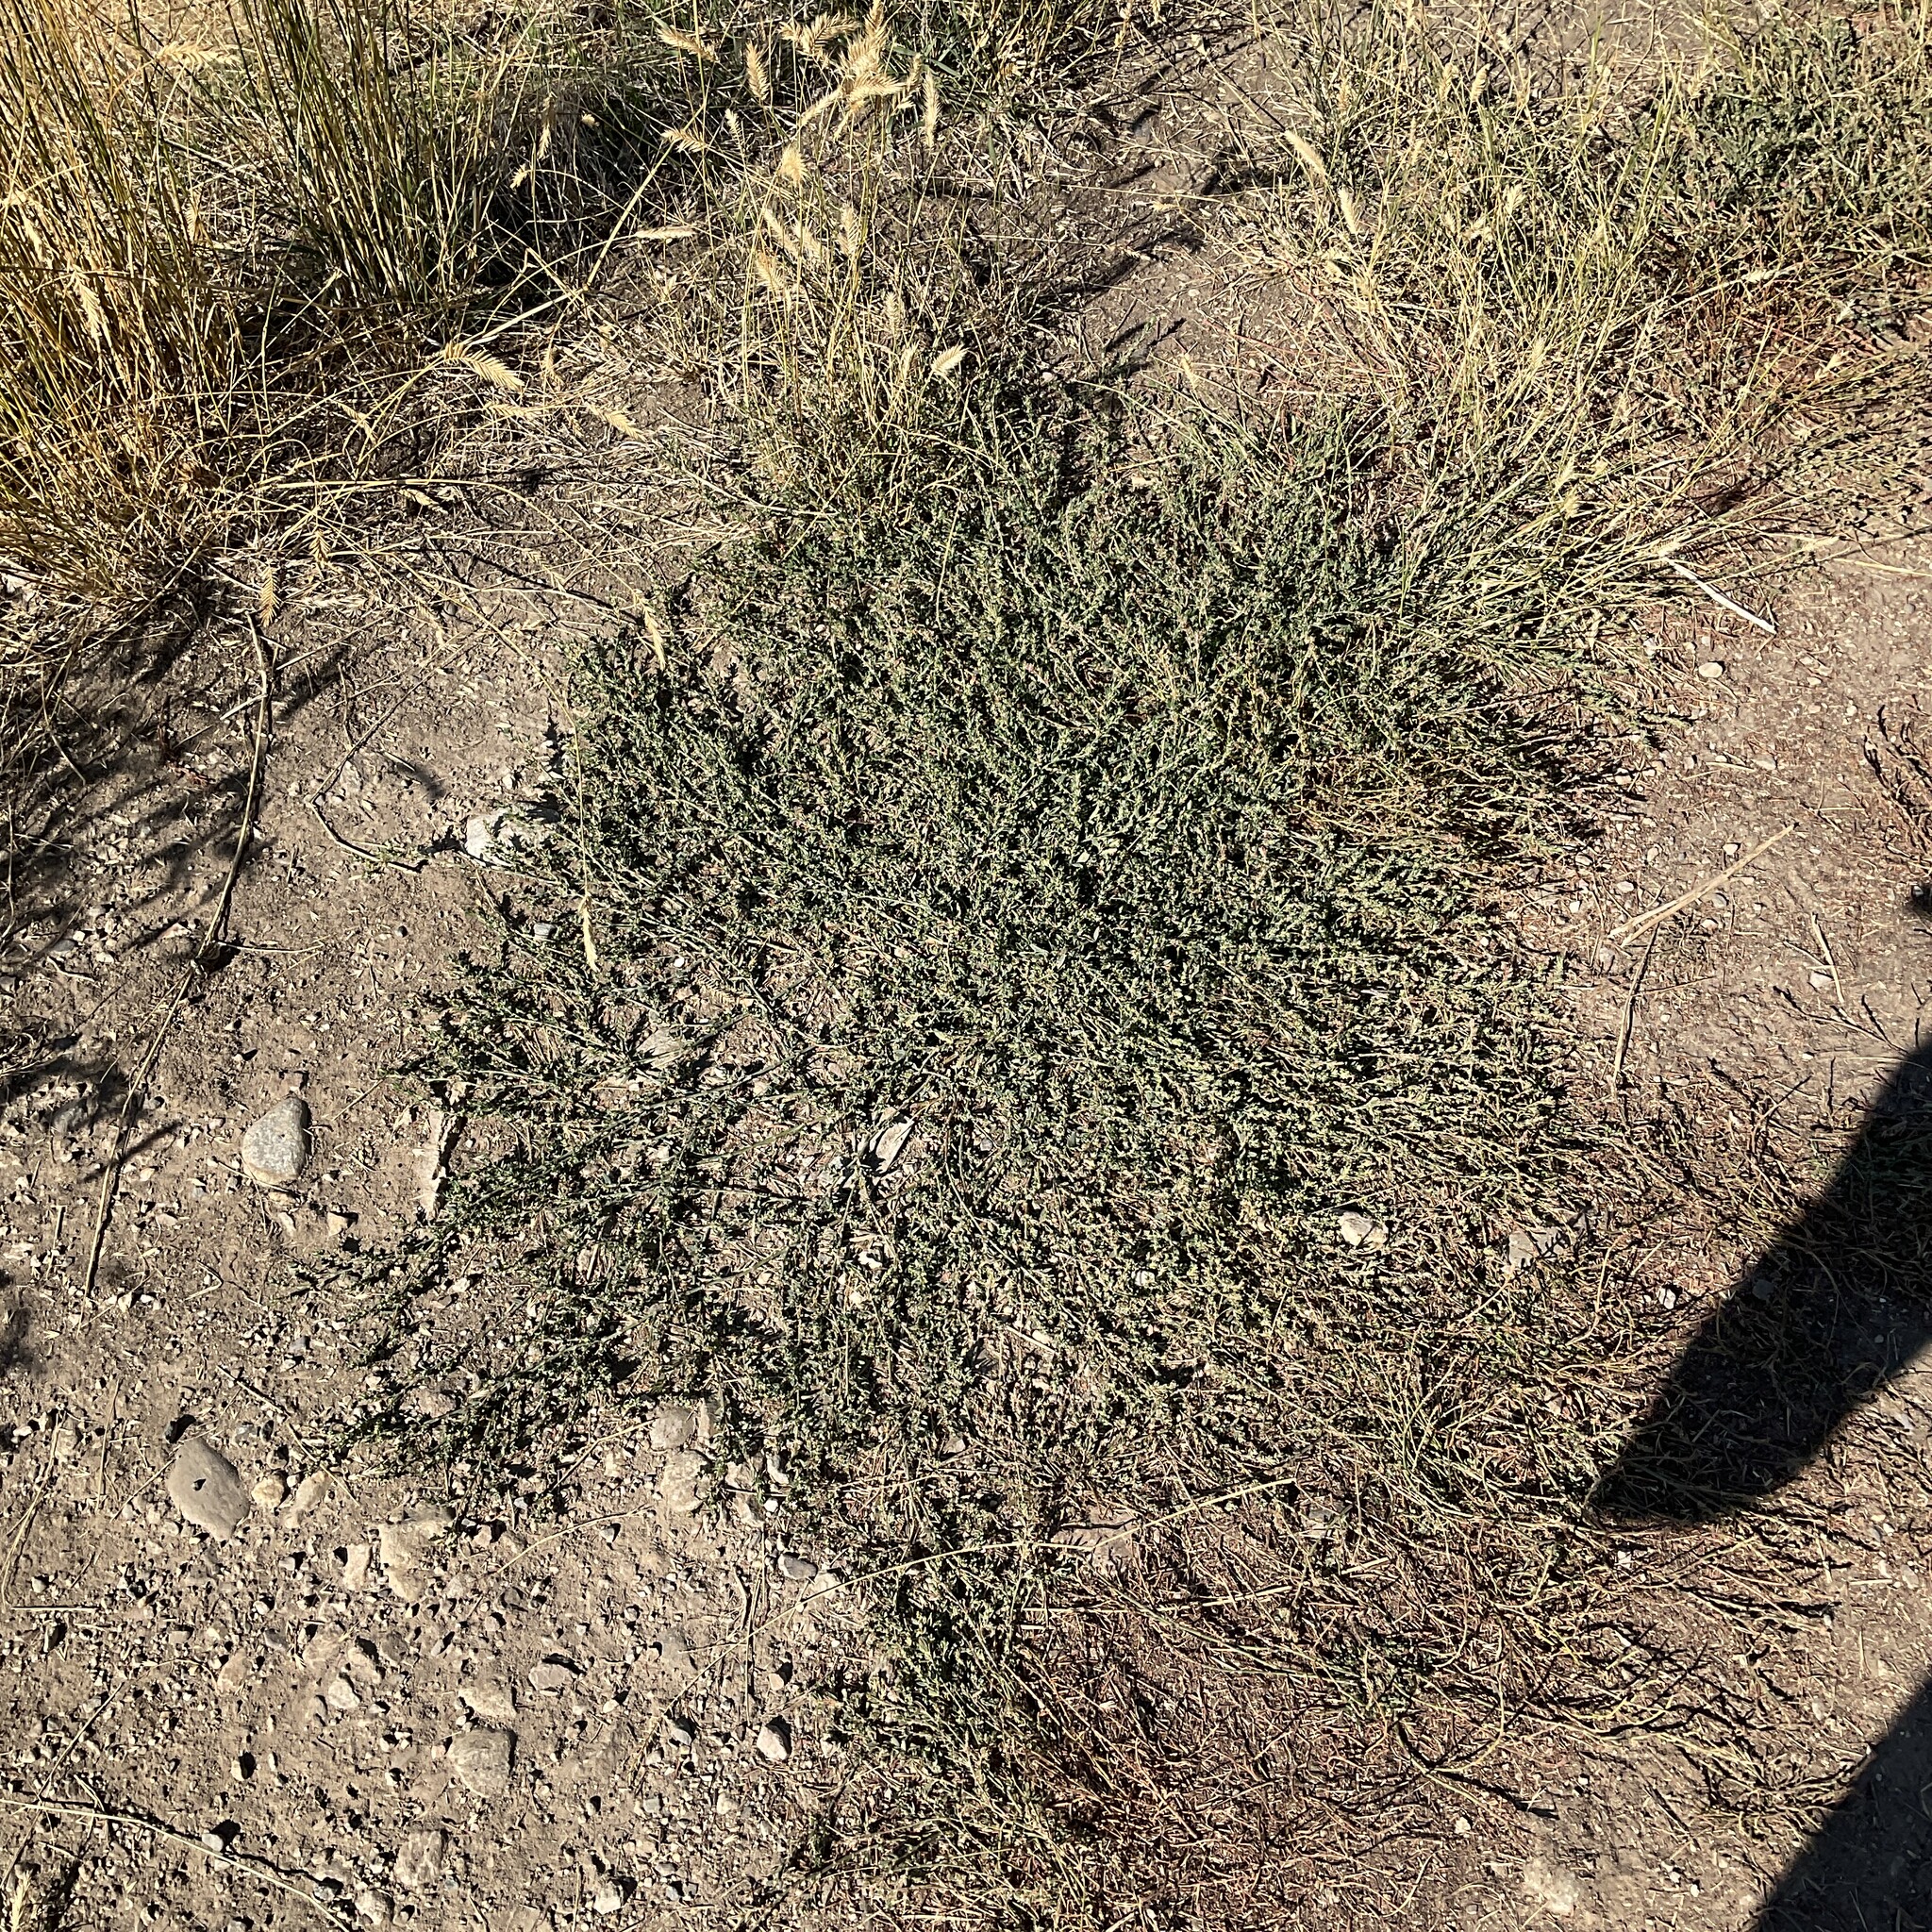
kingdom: Plantae
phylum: Tracheophyta
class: Magnoliopsida
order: Caryophyllales
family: Polygonaceae
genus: Polygonum
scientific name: Polygonum aviculare
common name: Prostrate knotweed
